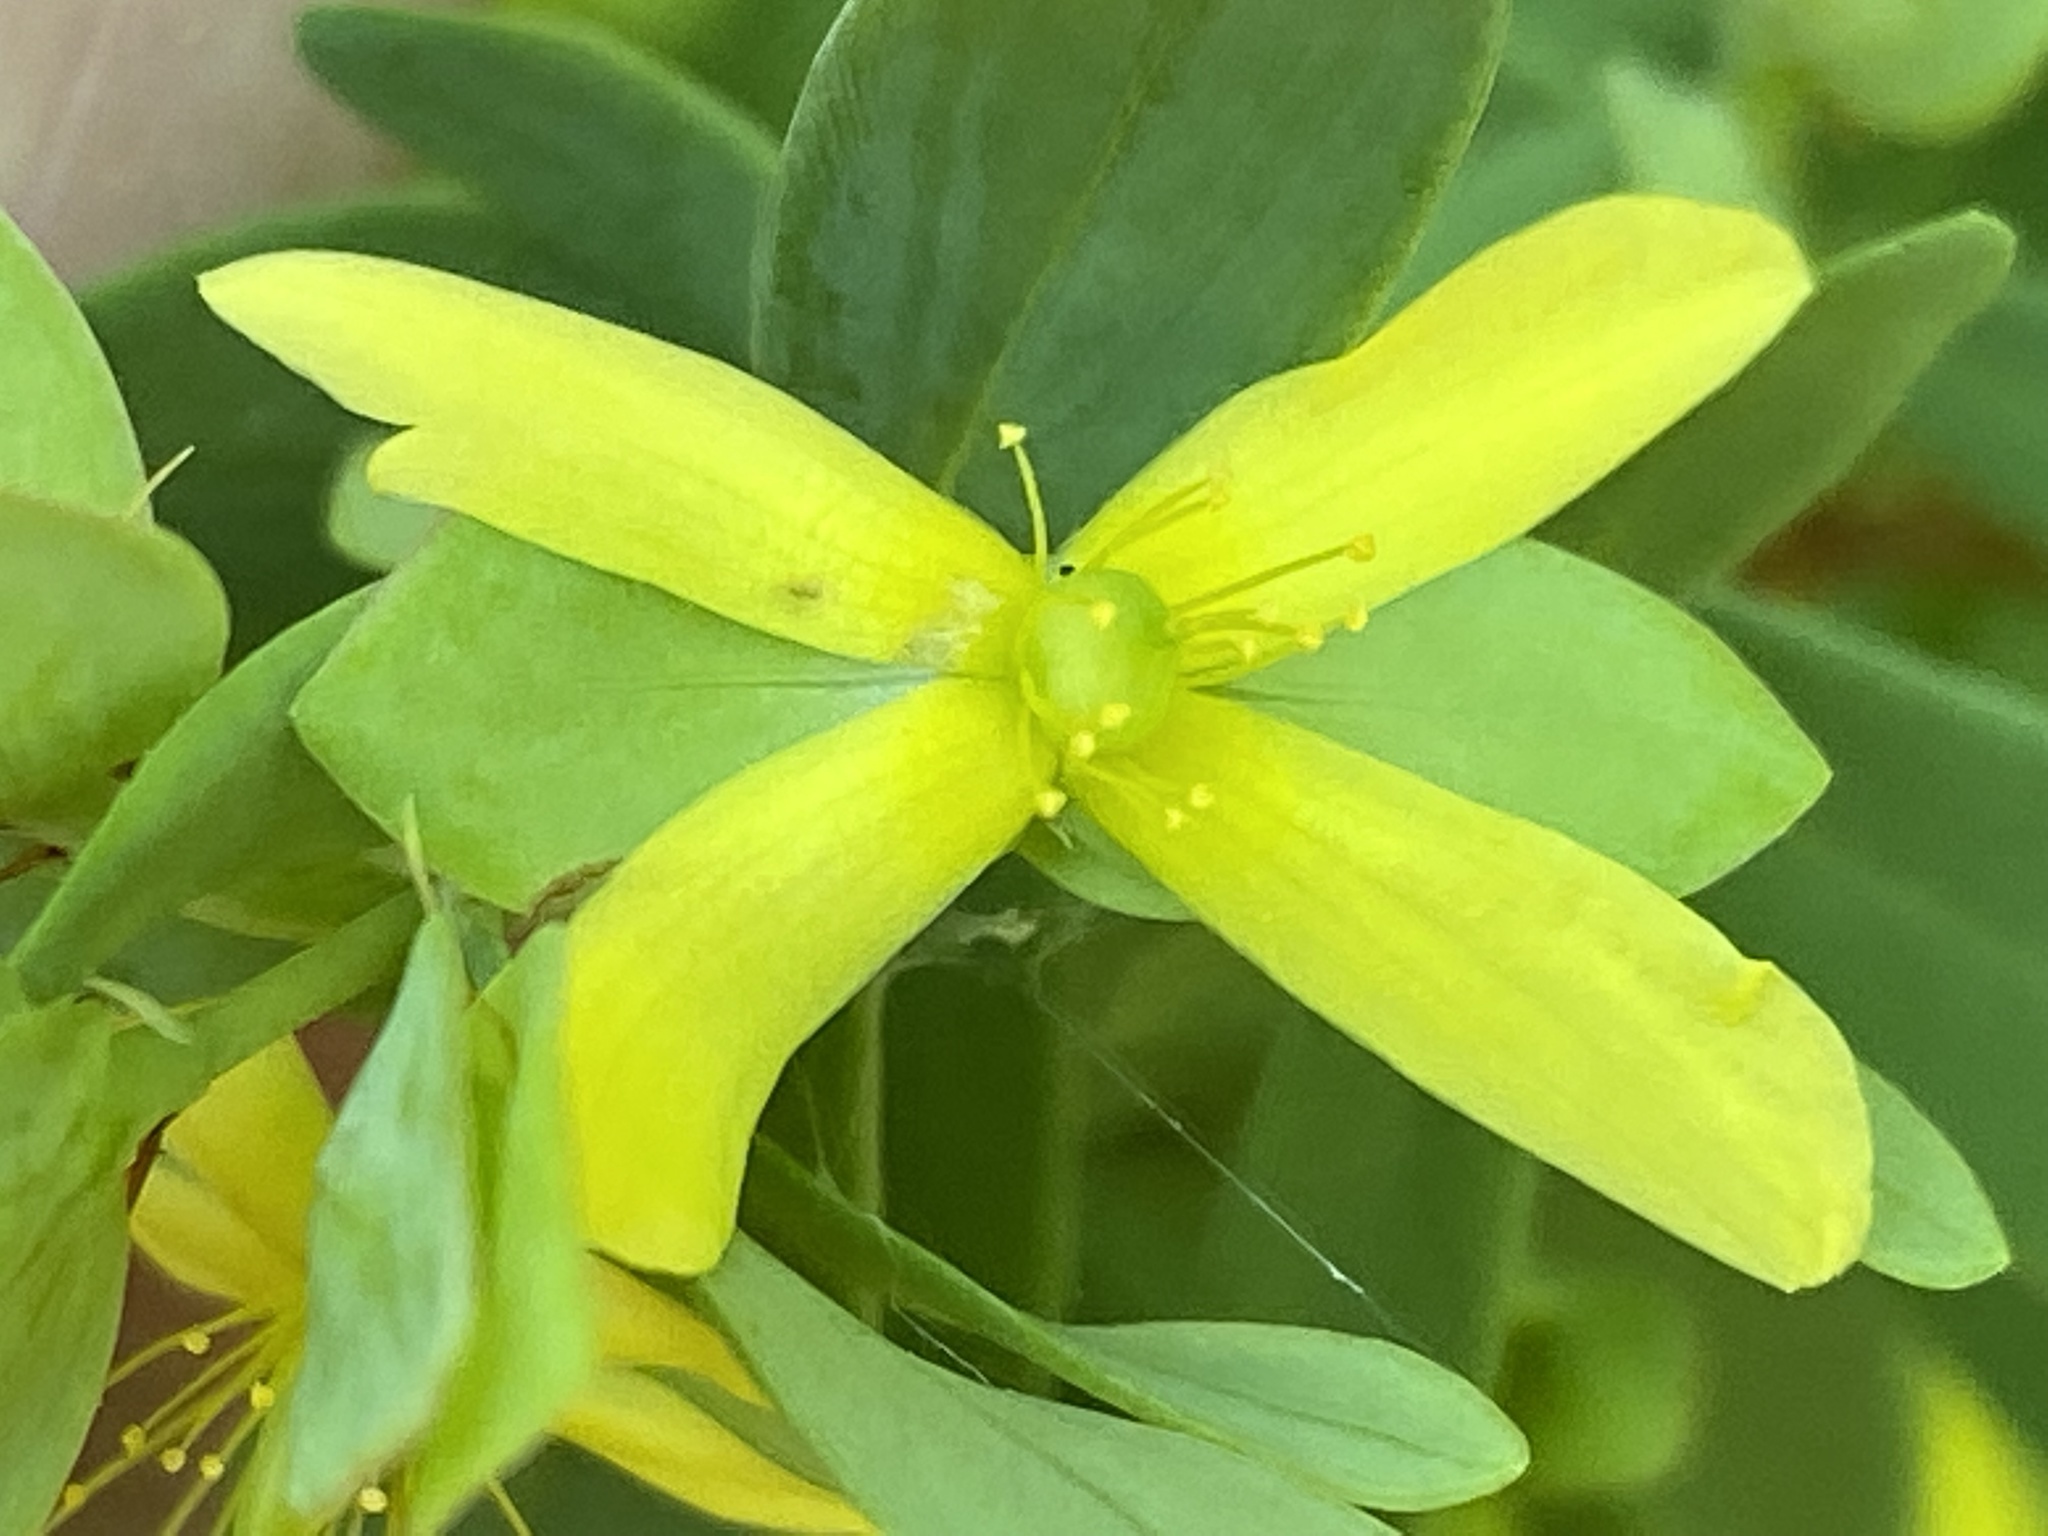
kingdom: Plantae
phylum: Tracheophyta
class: Magnoliopsida
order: Malpighiales
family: Hypericaceae
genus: Hypericum
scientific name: Hypericum hypericoides
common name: St. andrew's cross
